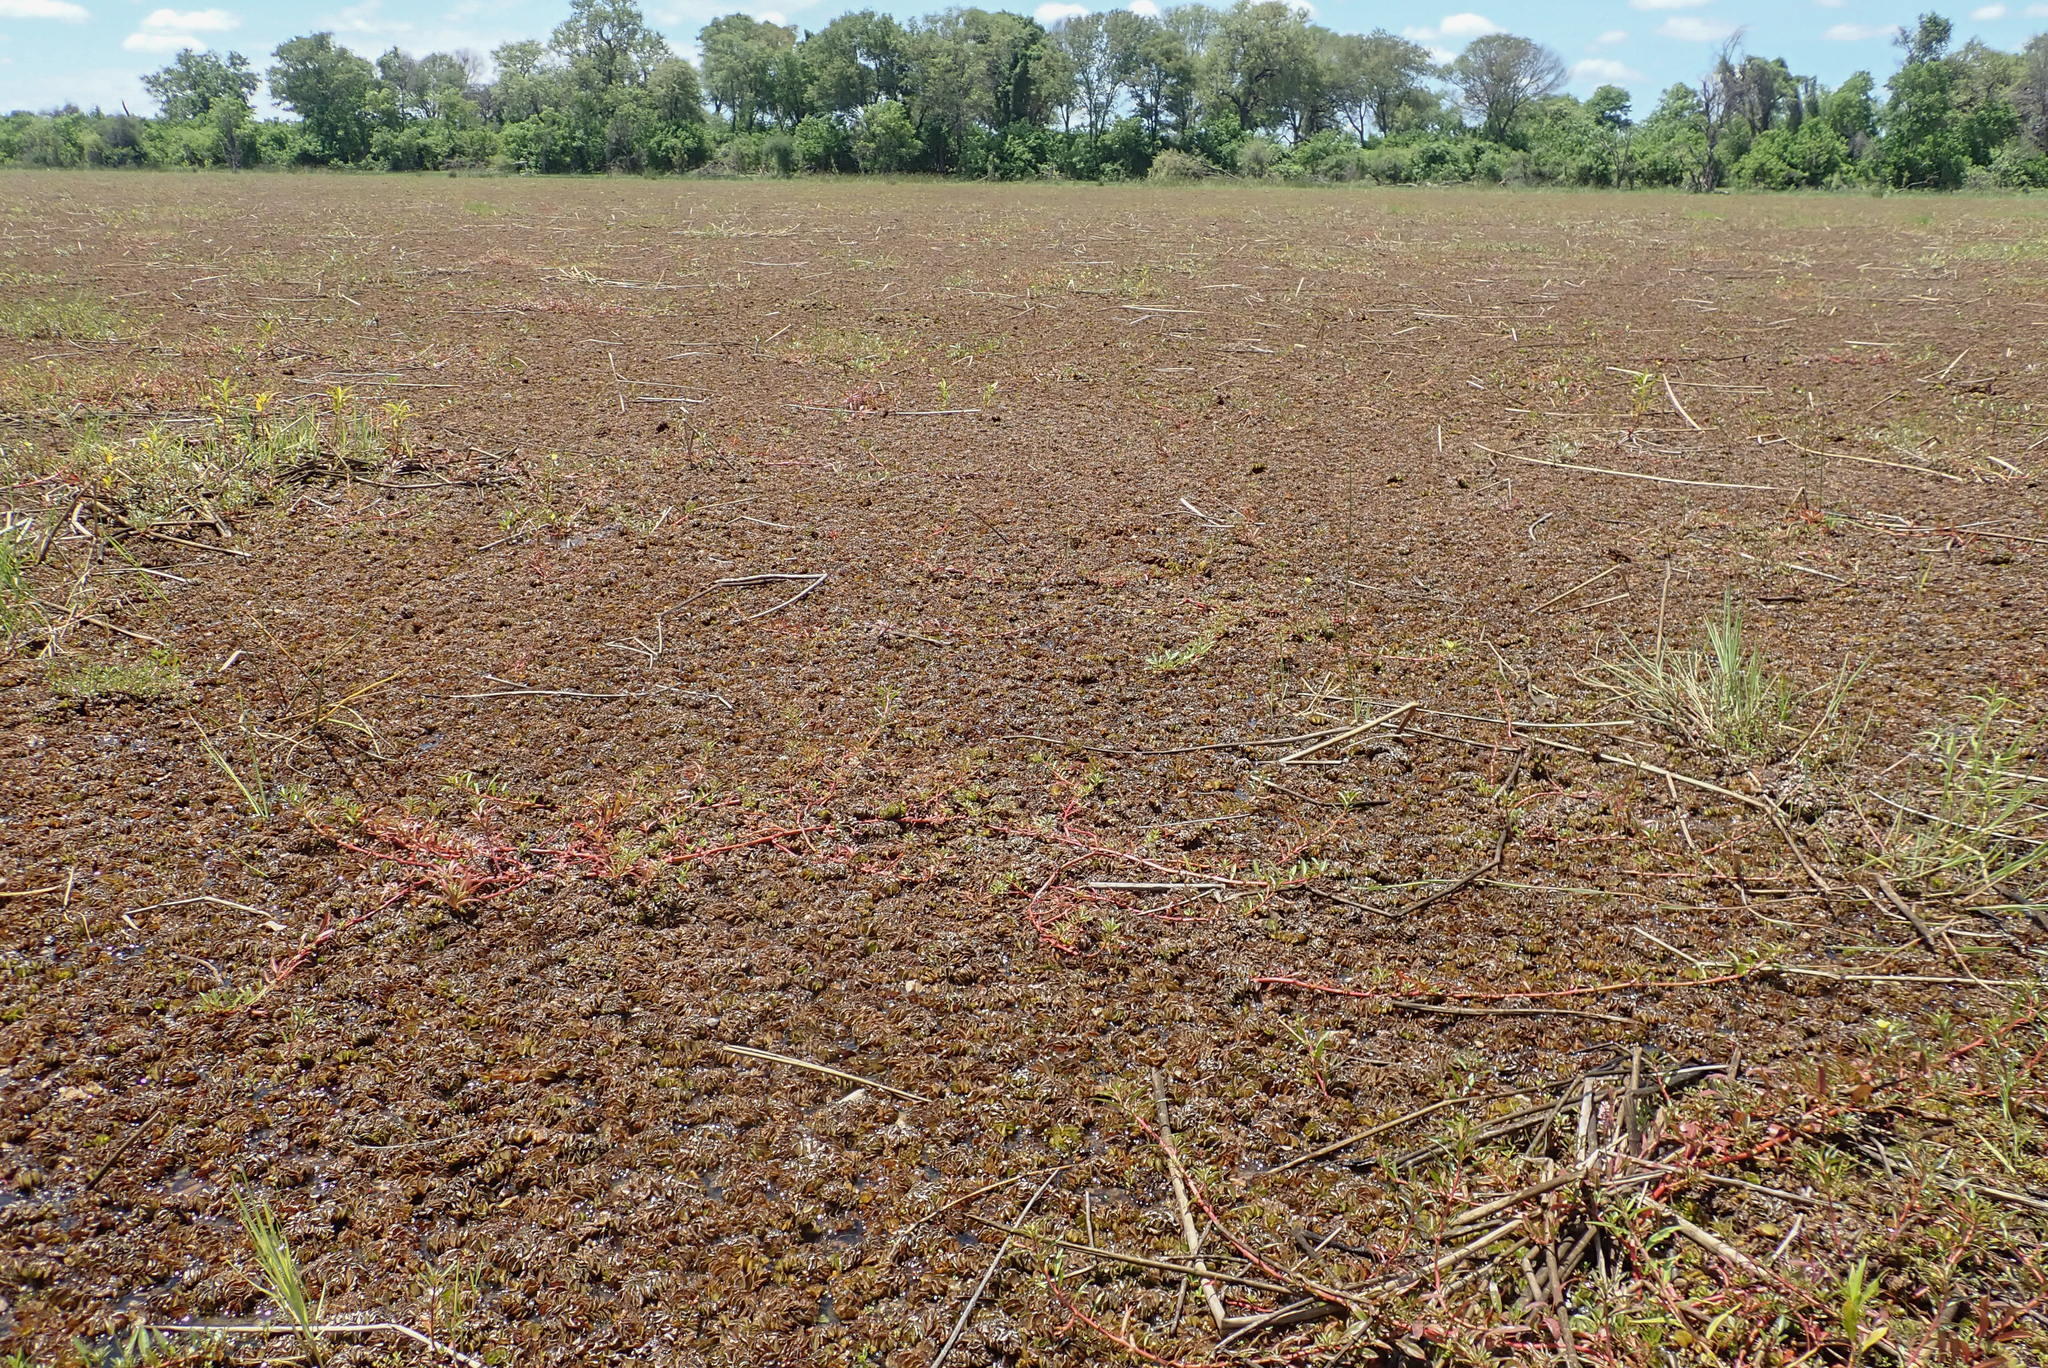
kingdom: Plantae
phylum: Tracheophyta
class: Polypodiopsida
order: Salviniales
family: Salviniaceae
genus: Salvinia
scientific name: Salvinia molesta
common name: Kariba weed
